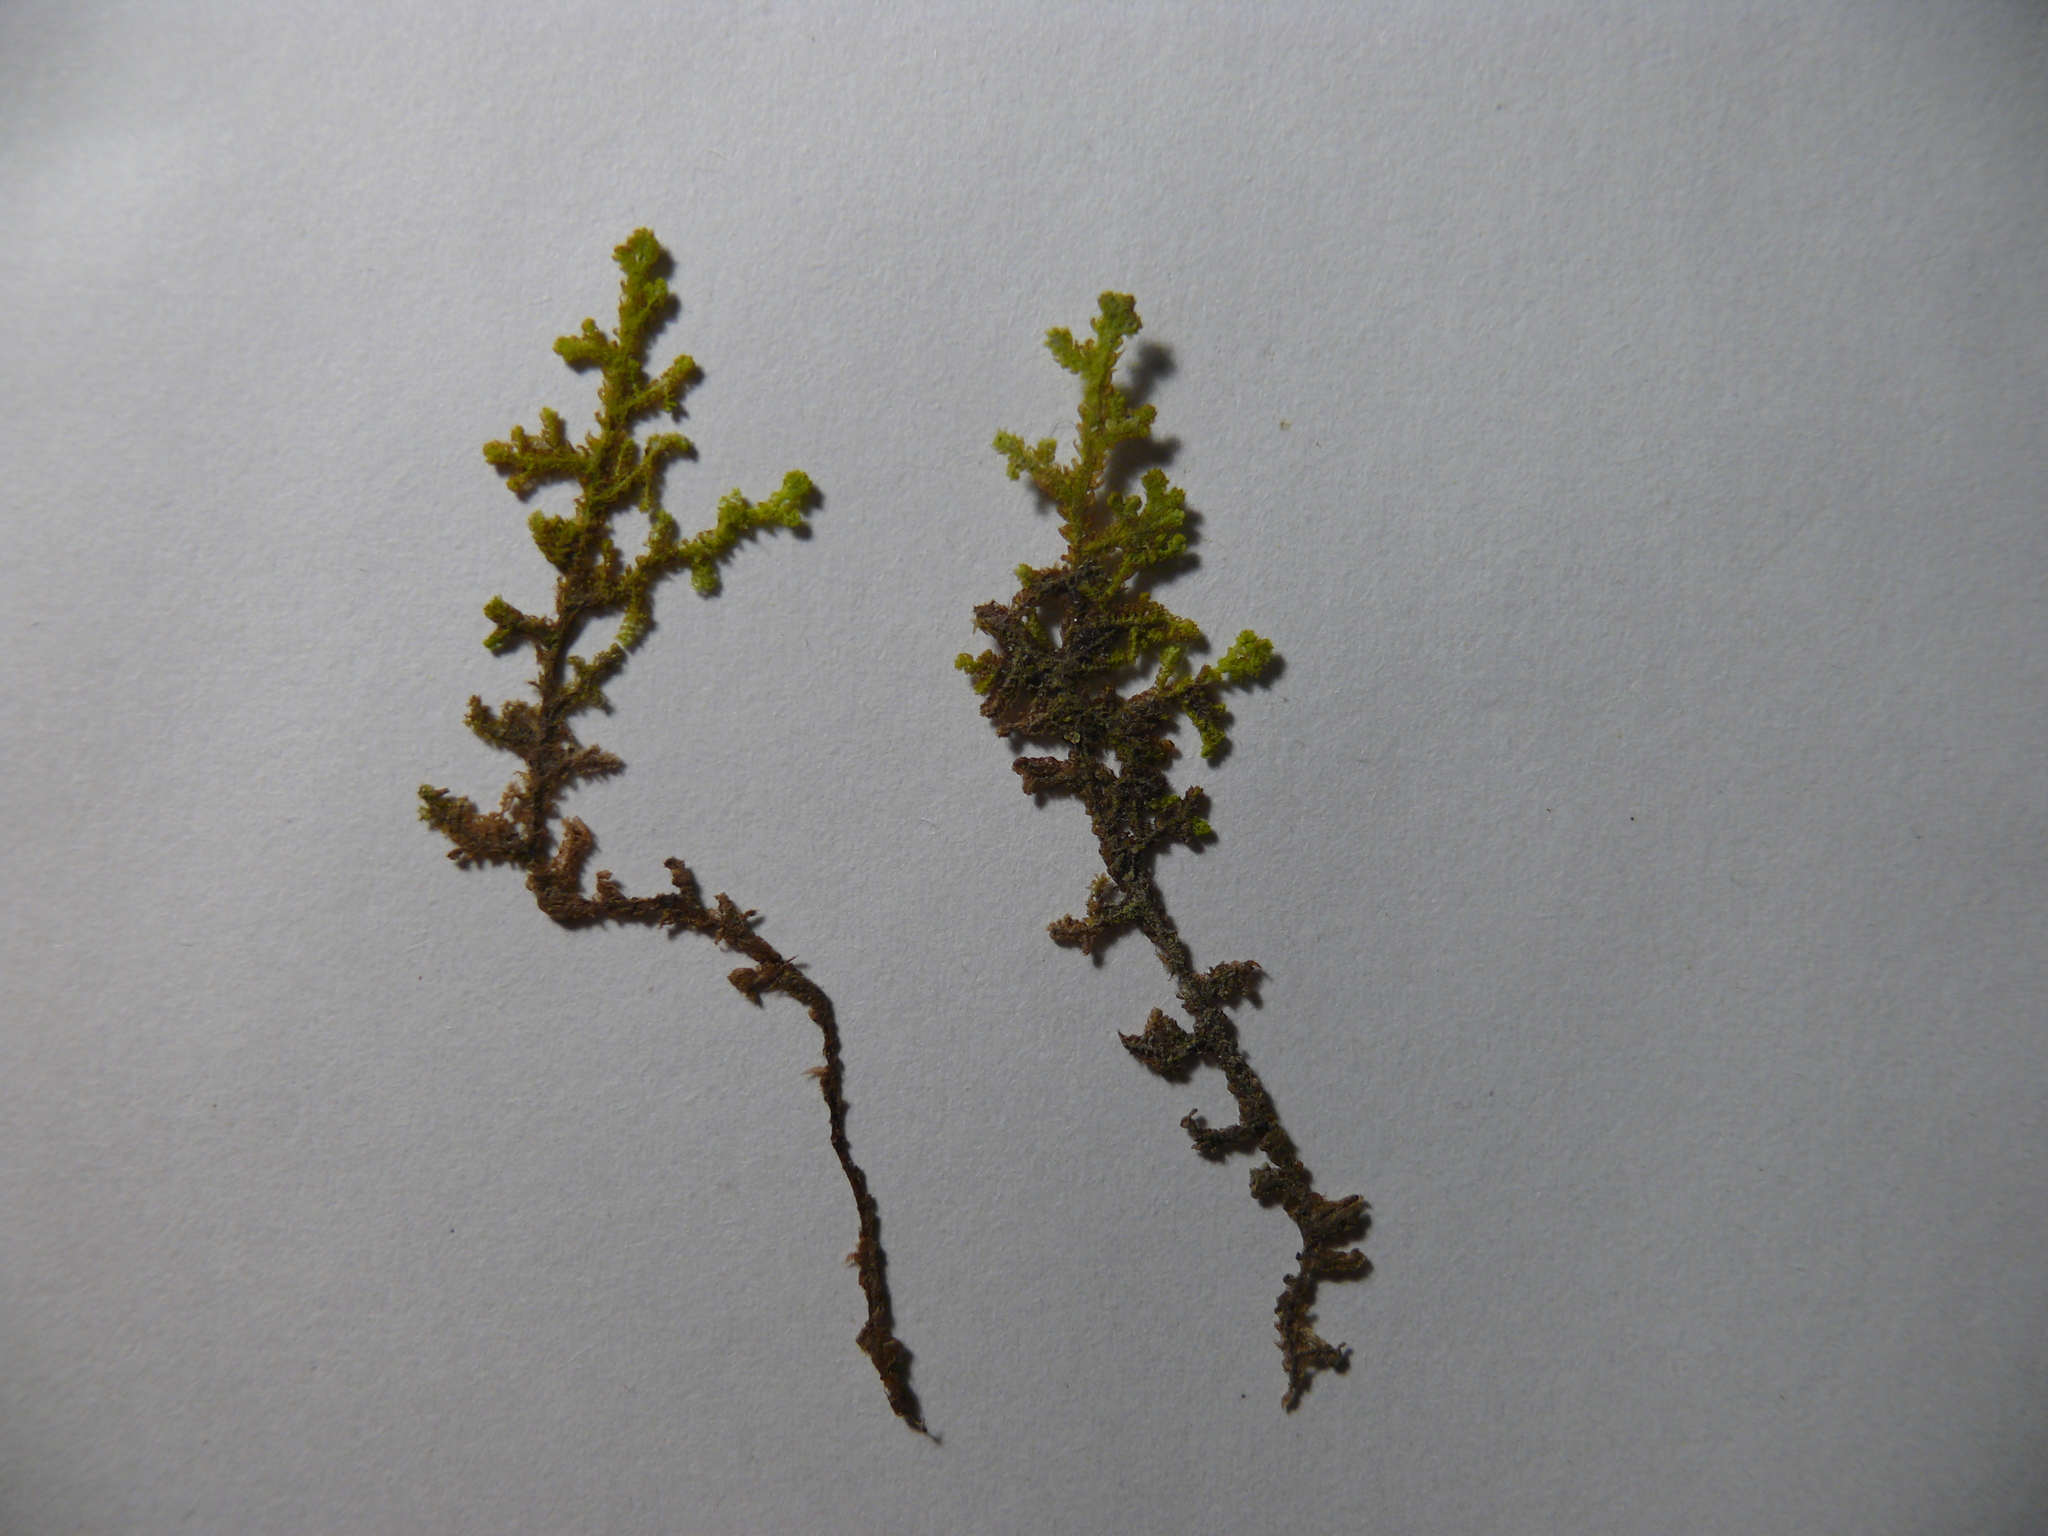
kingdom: Plantae
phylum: Marchantiophyta
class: Jungermanniopsida
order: Ptilidiales
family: Ptilidiaceae
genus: Ptilidium
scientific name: Ptilidium ciliare
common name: Ciliate fringewort
